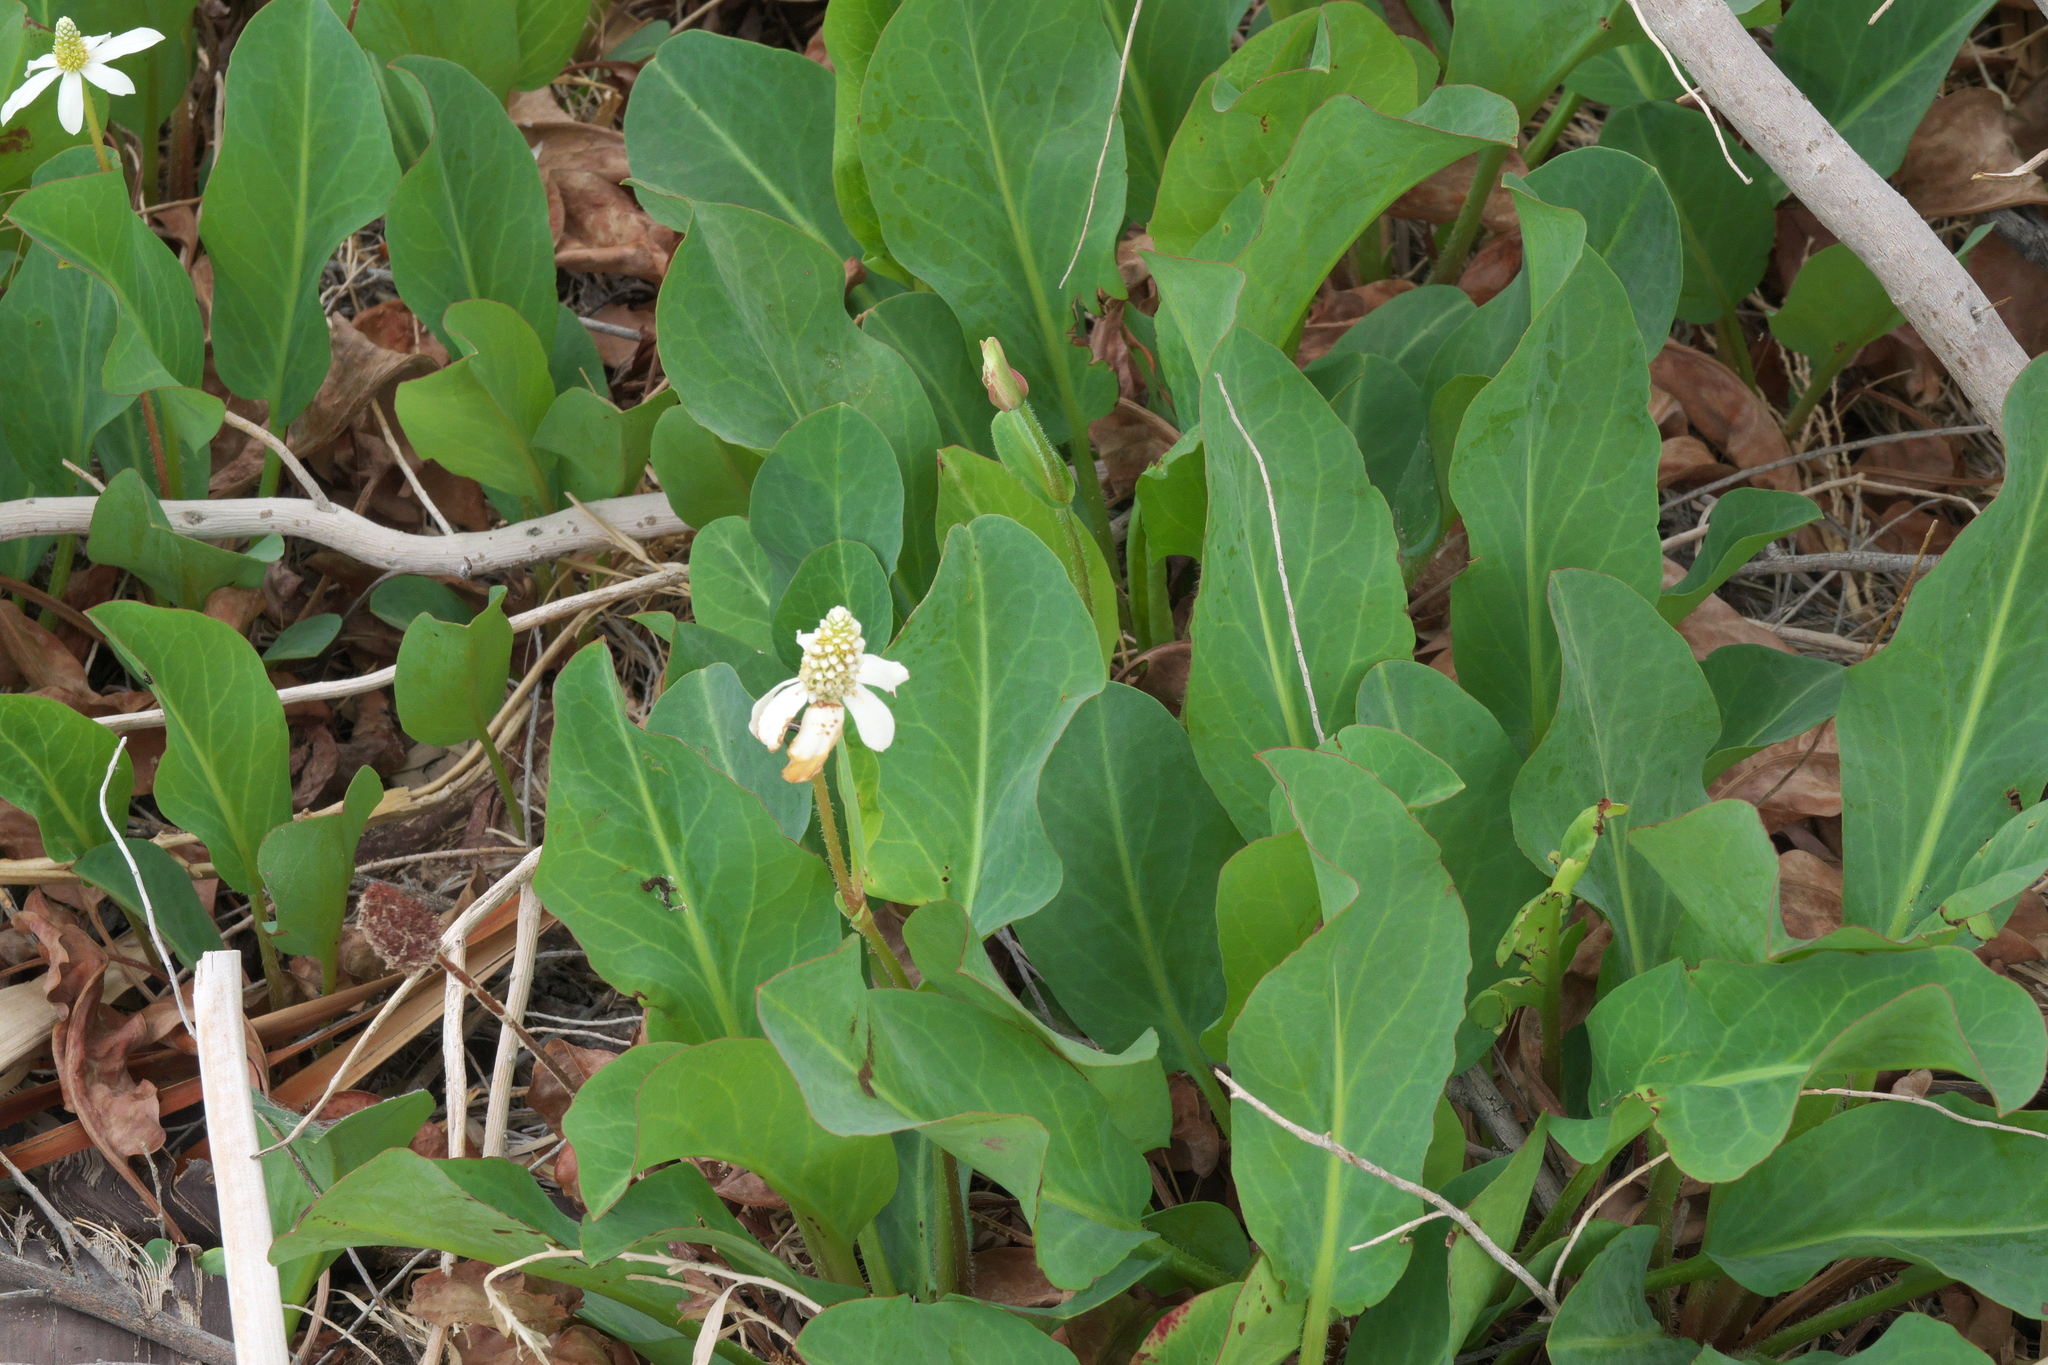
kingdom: Plantae
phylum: Tracheophyta
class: Magnoliopsida
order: Piperales
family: Saururaceae
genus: Anemopsis
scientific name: Anemopsis californica
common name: Apache-beads
